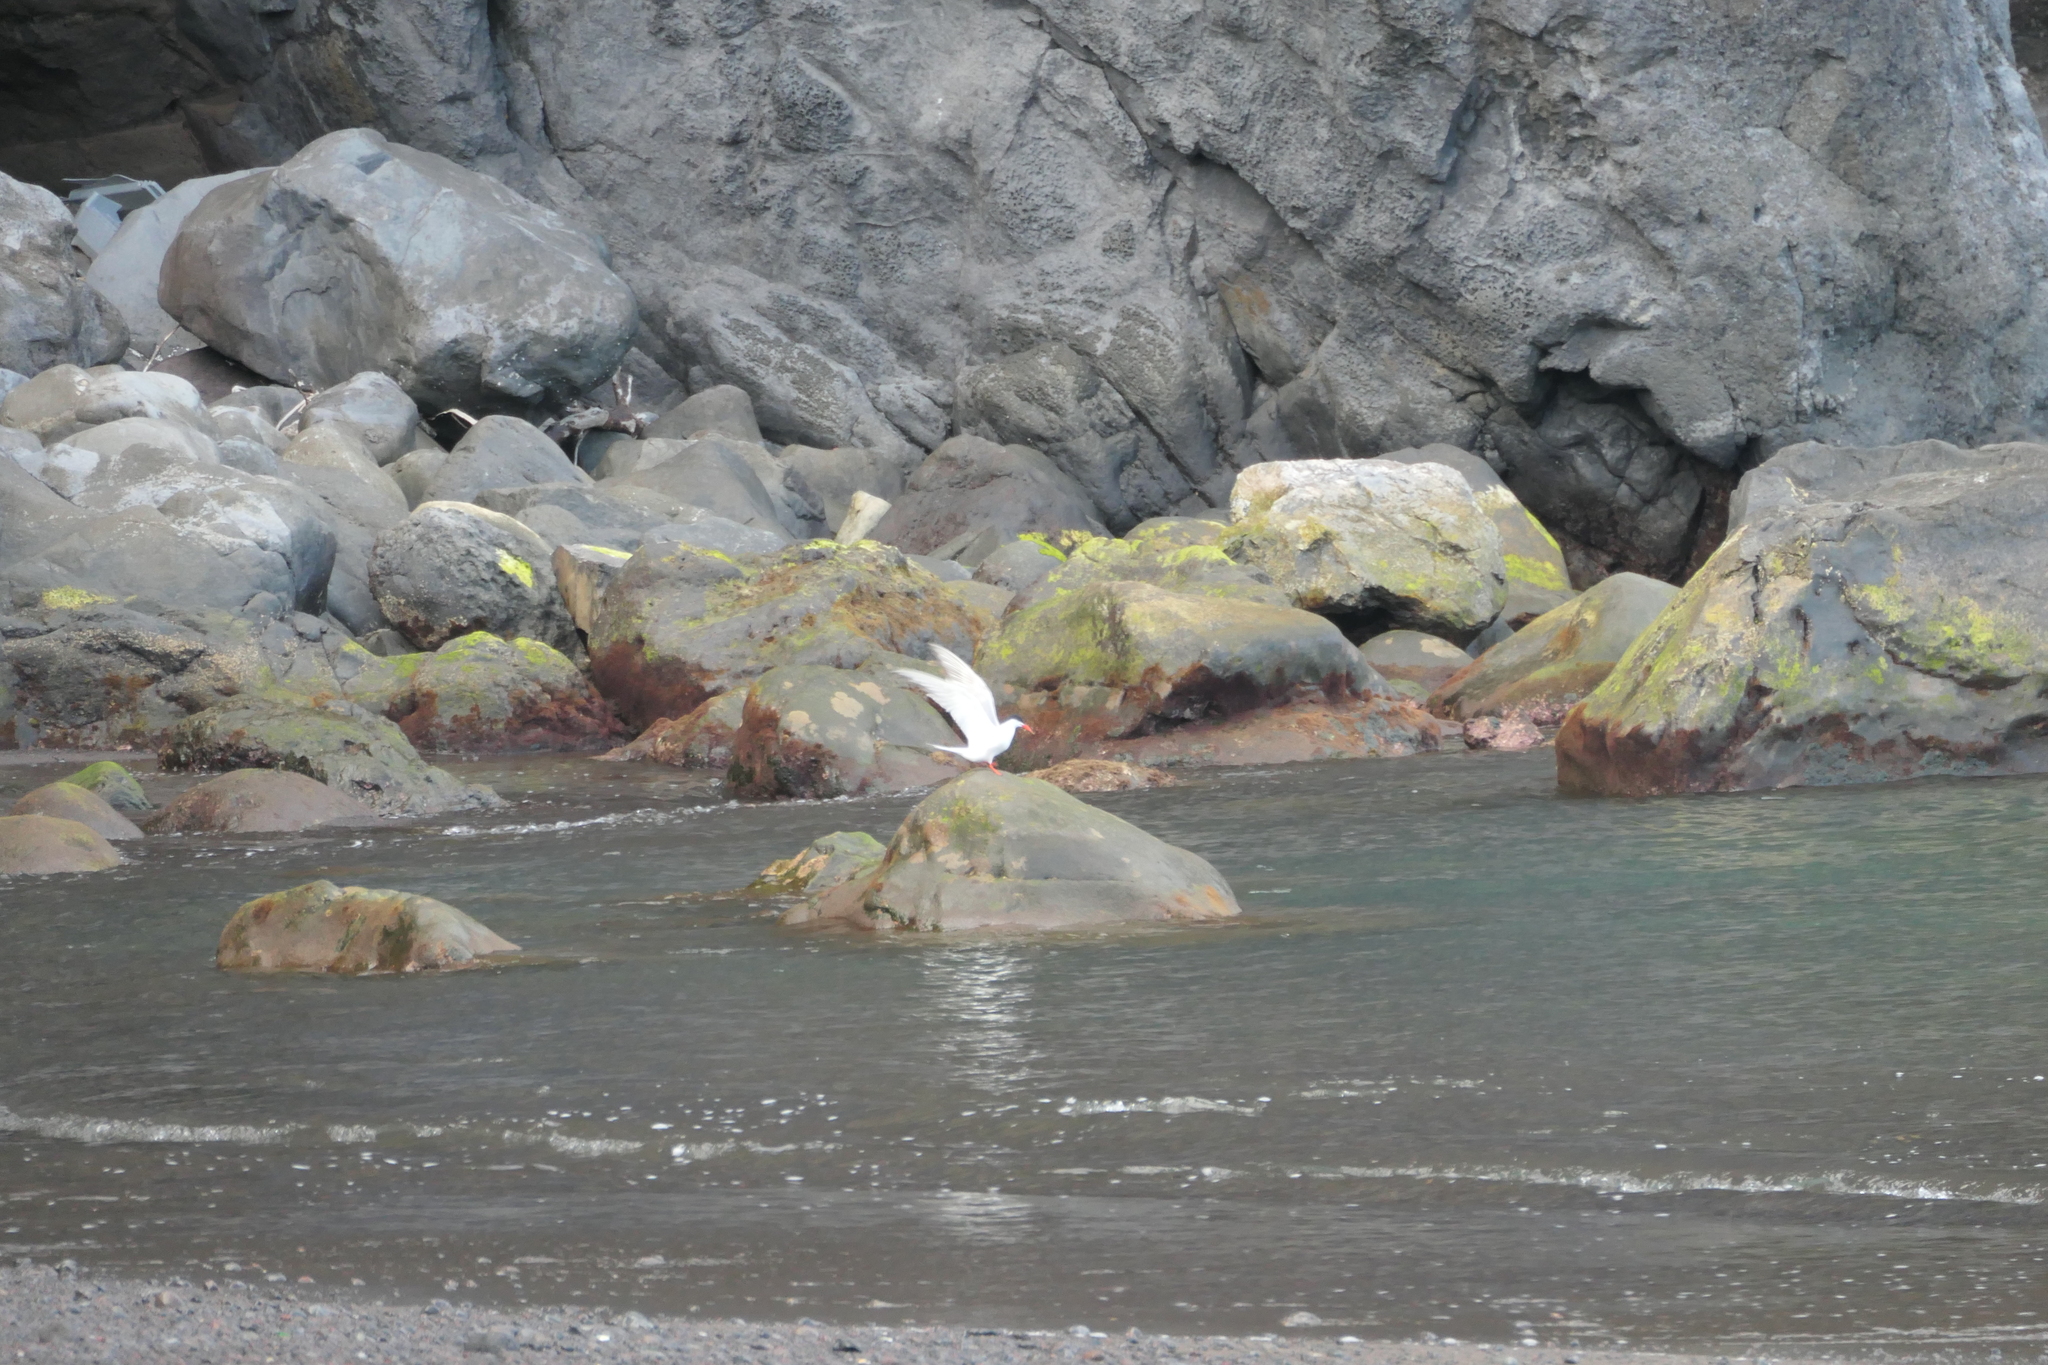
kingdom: Animalia
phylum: Chordata
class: Aves
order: Charadriiformes
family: Laridae
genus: Sterna
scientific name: Sterna hirundo
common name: Common tern
